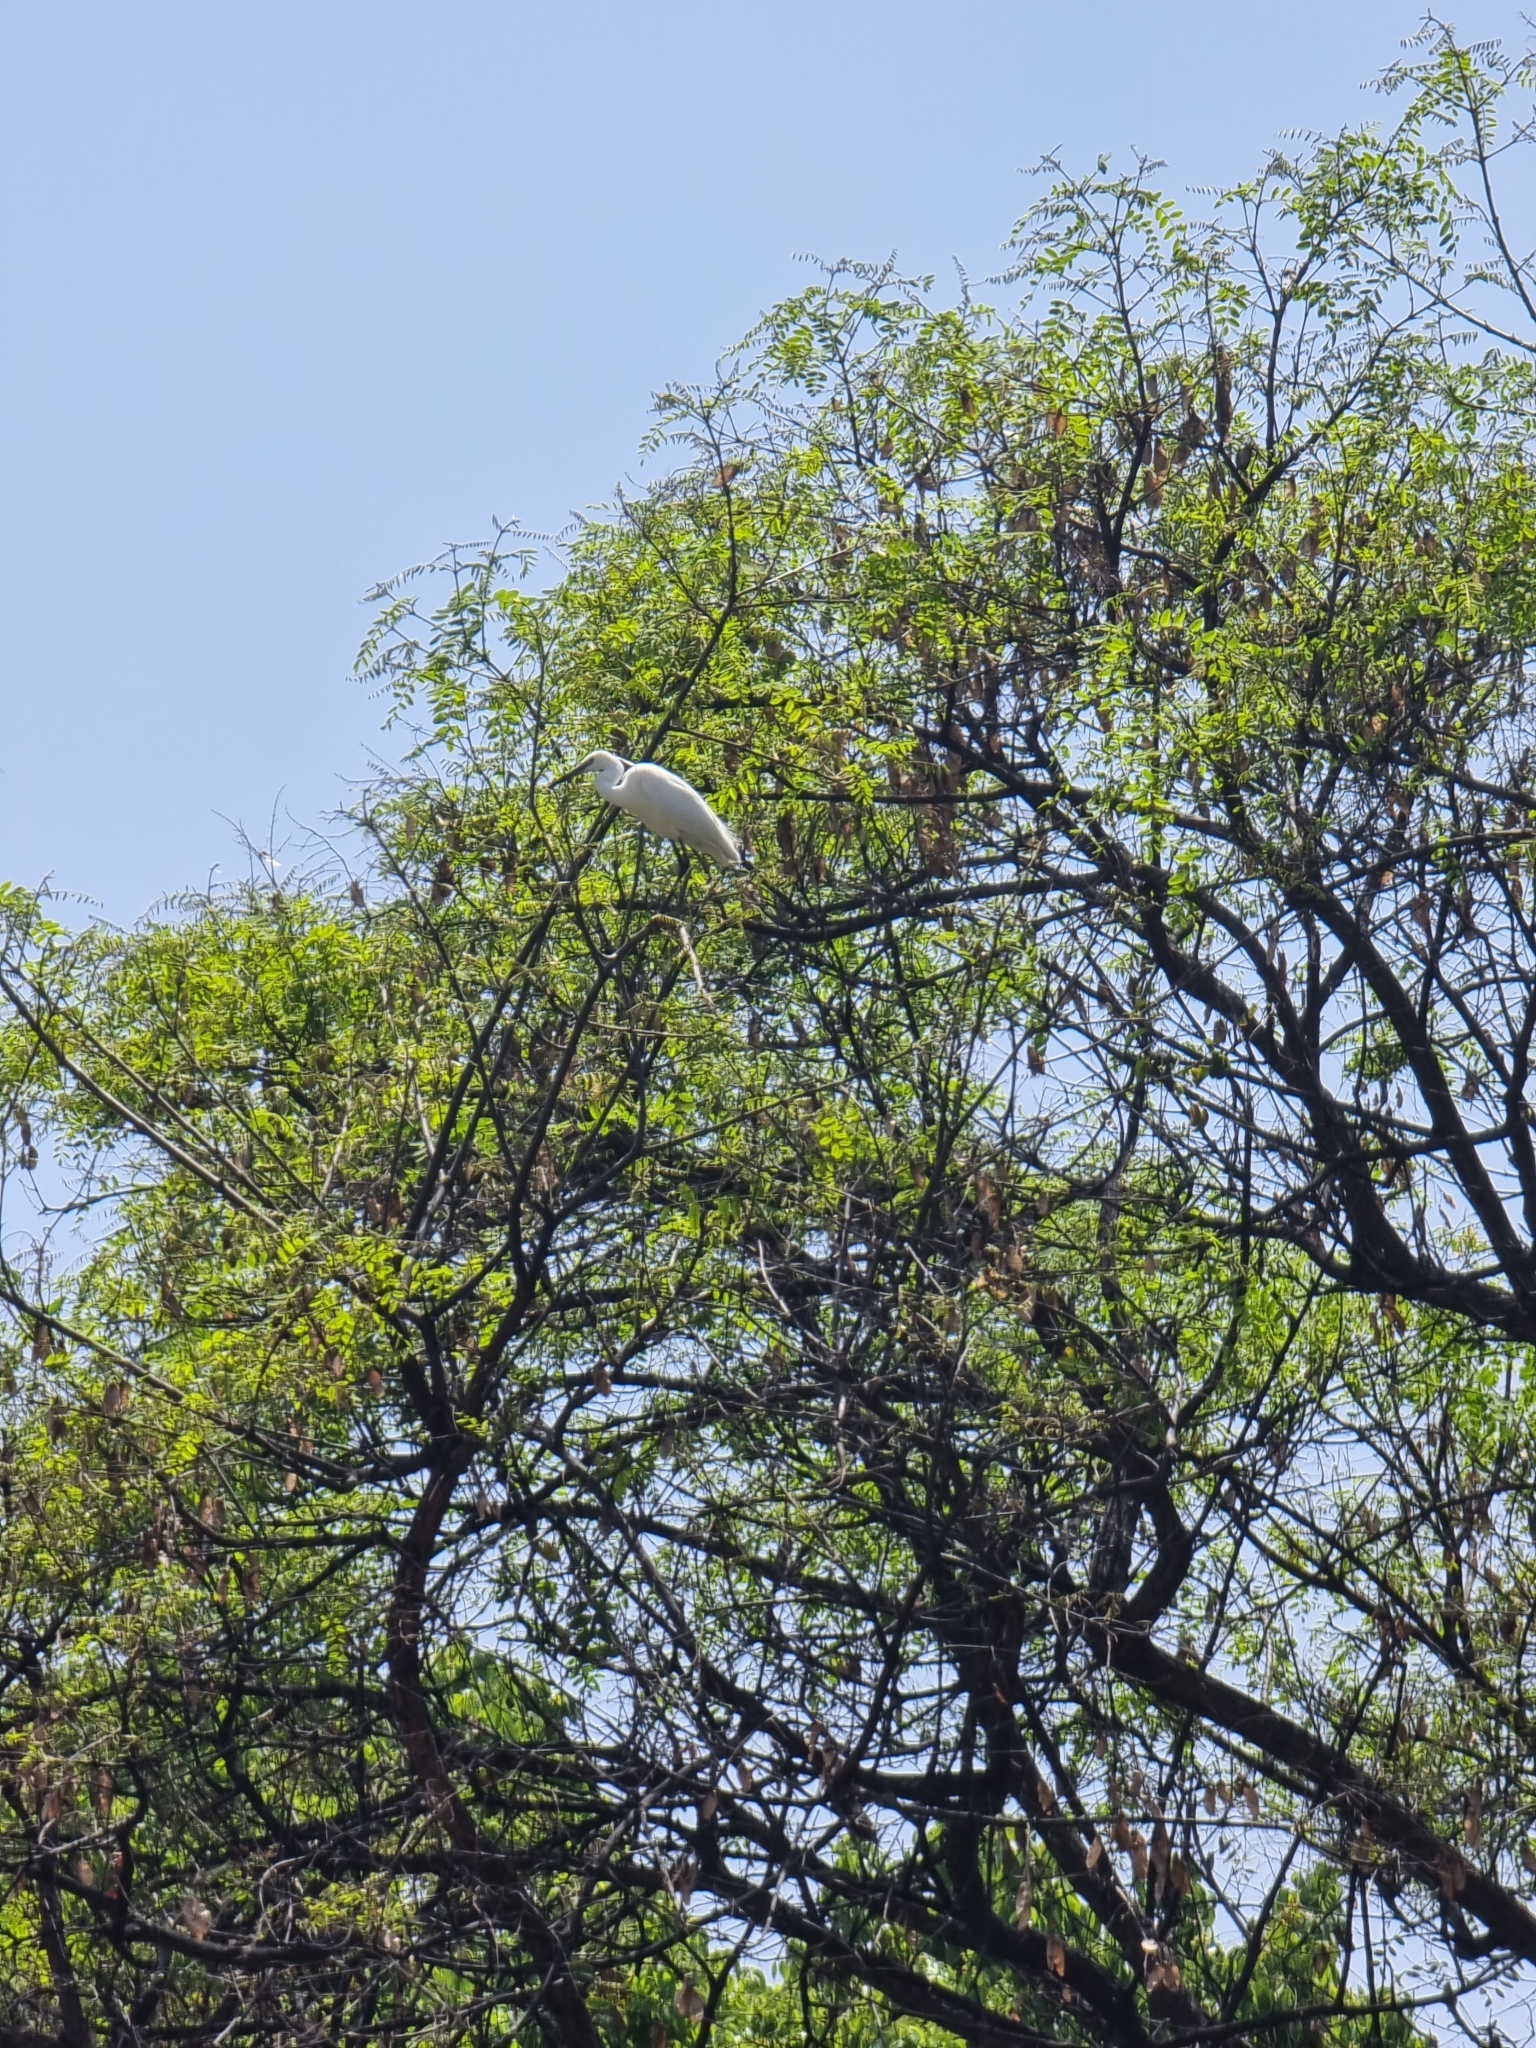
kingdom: Animalia
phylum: Chordata
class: Aves
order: Pelecaniformes
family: Ardeidae
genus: Egretta
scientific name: Egretta garzetta
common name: Little egret
